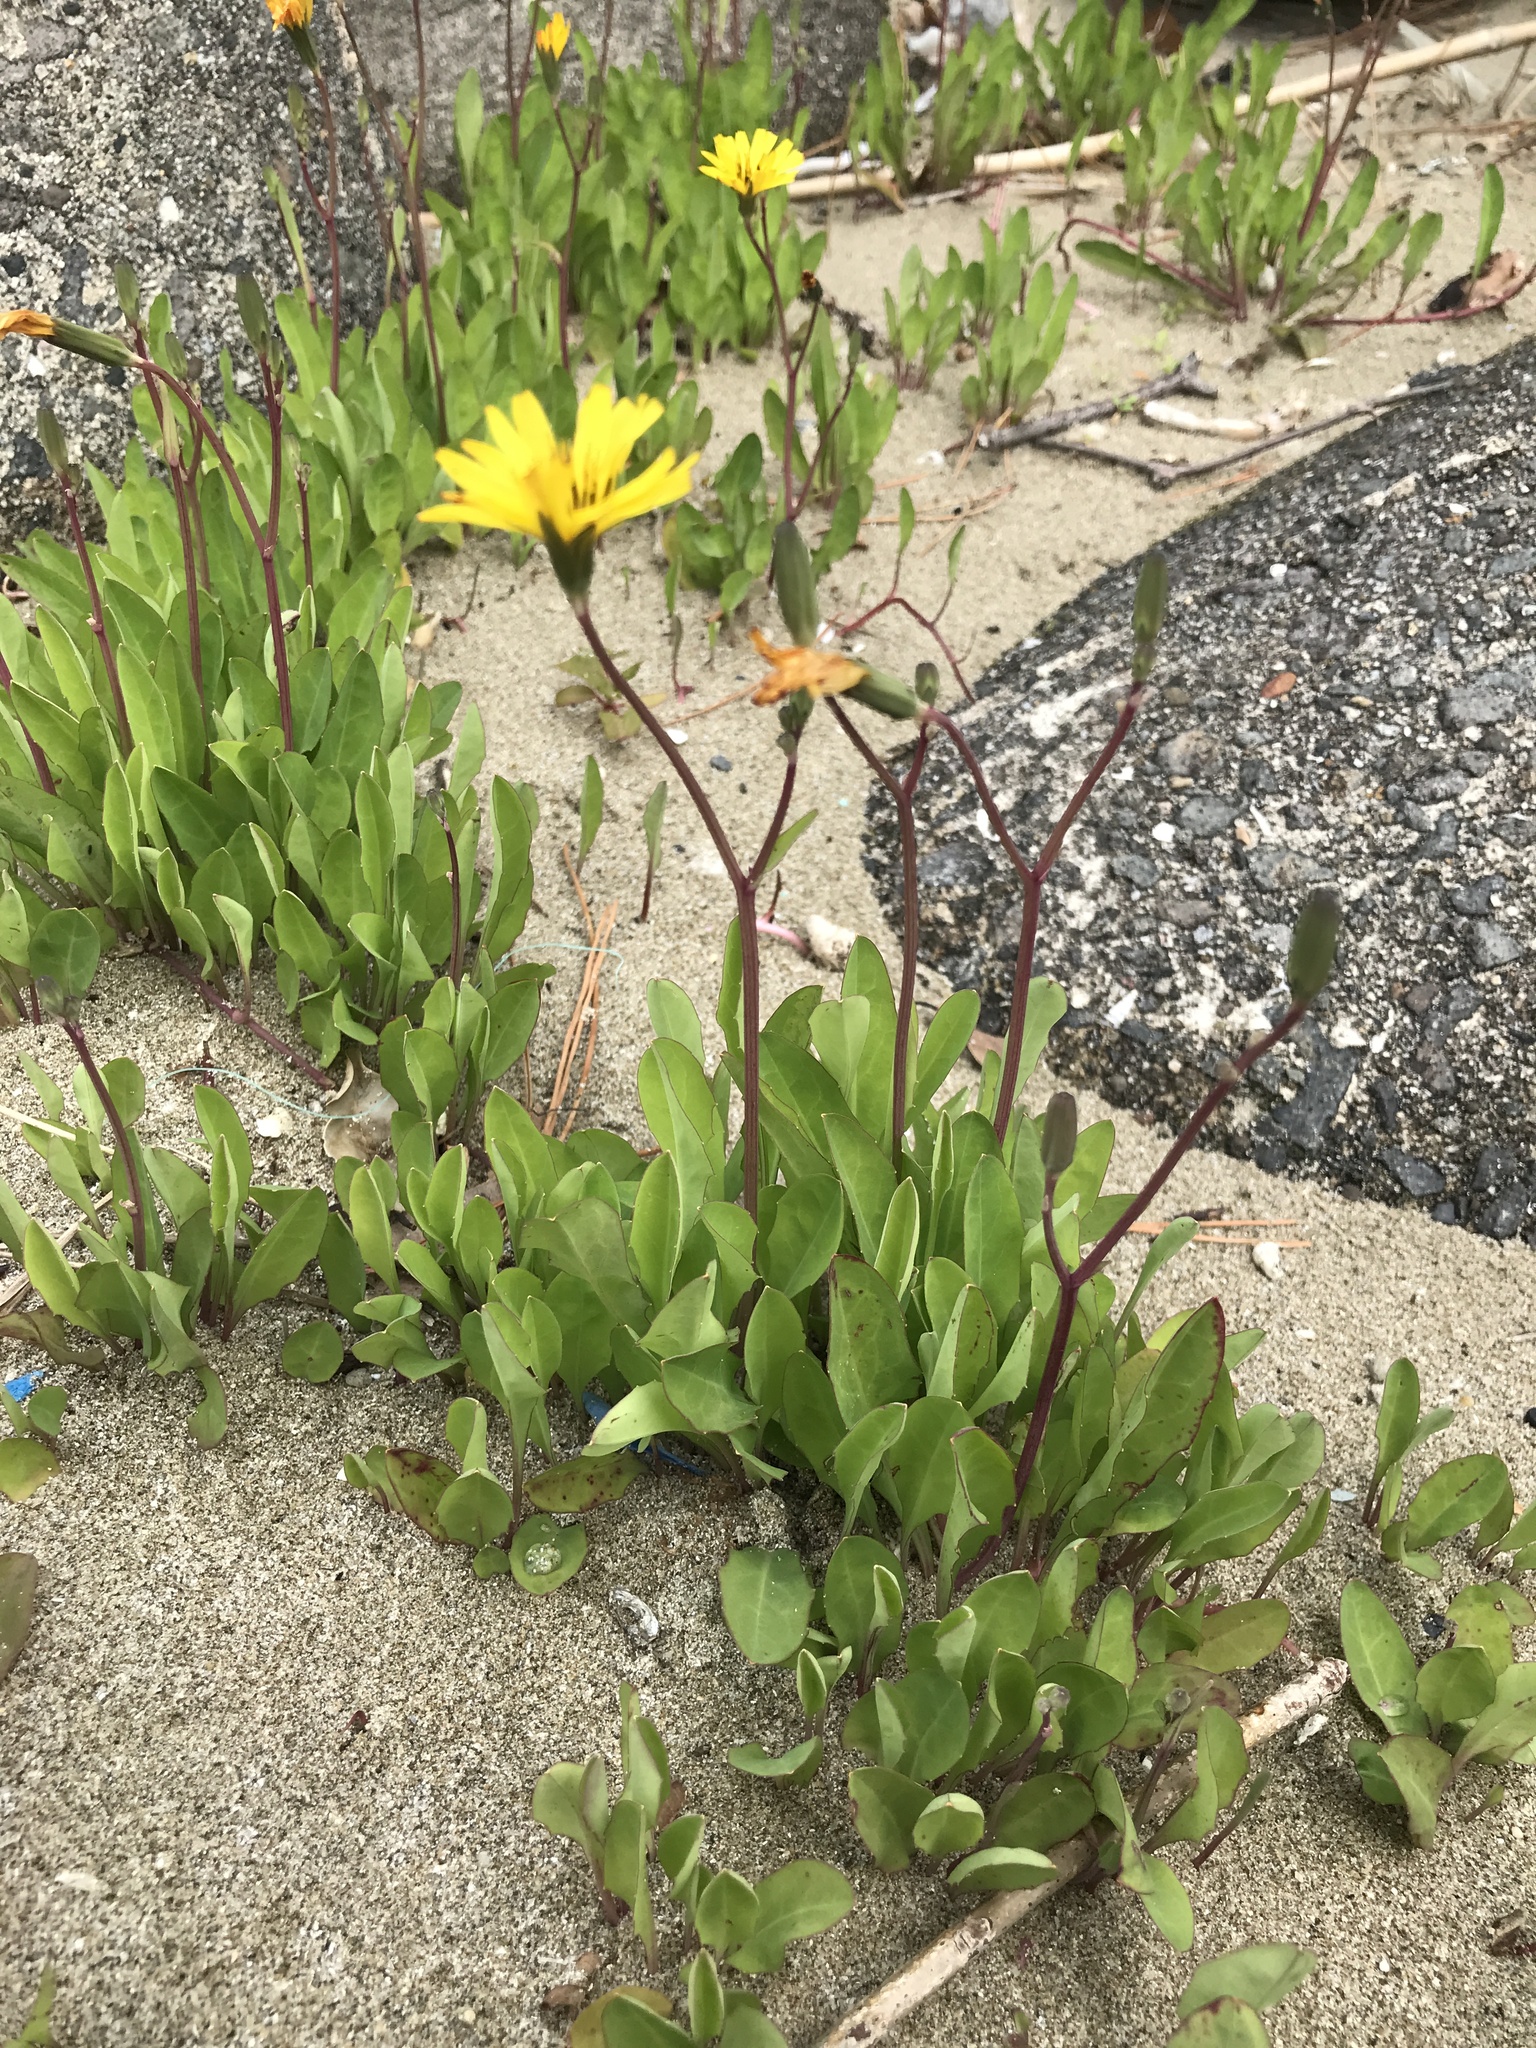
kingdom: Plantae
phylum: Tracheophyta
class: Magnoliopsida
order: Asterales
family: Asteraceae
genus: Ixeris
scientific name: Ixeris japonica
